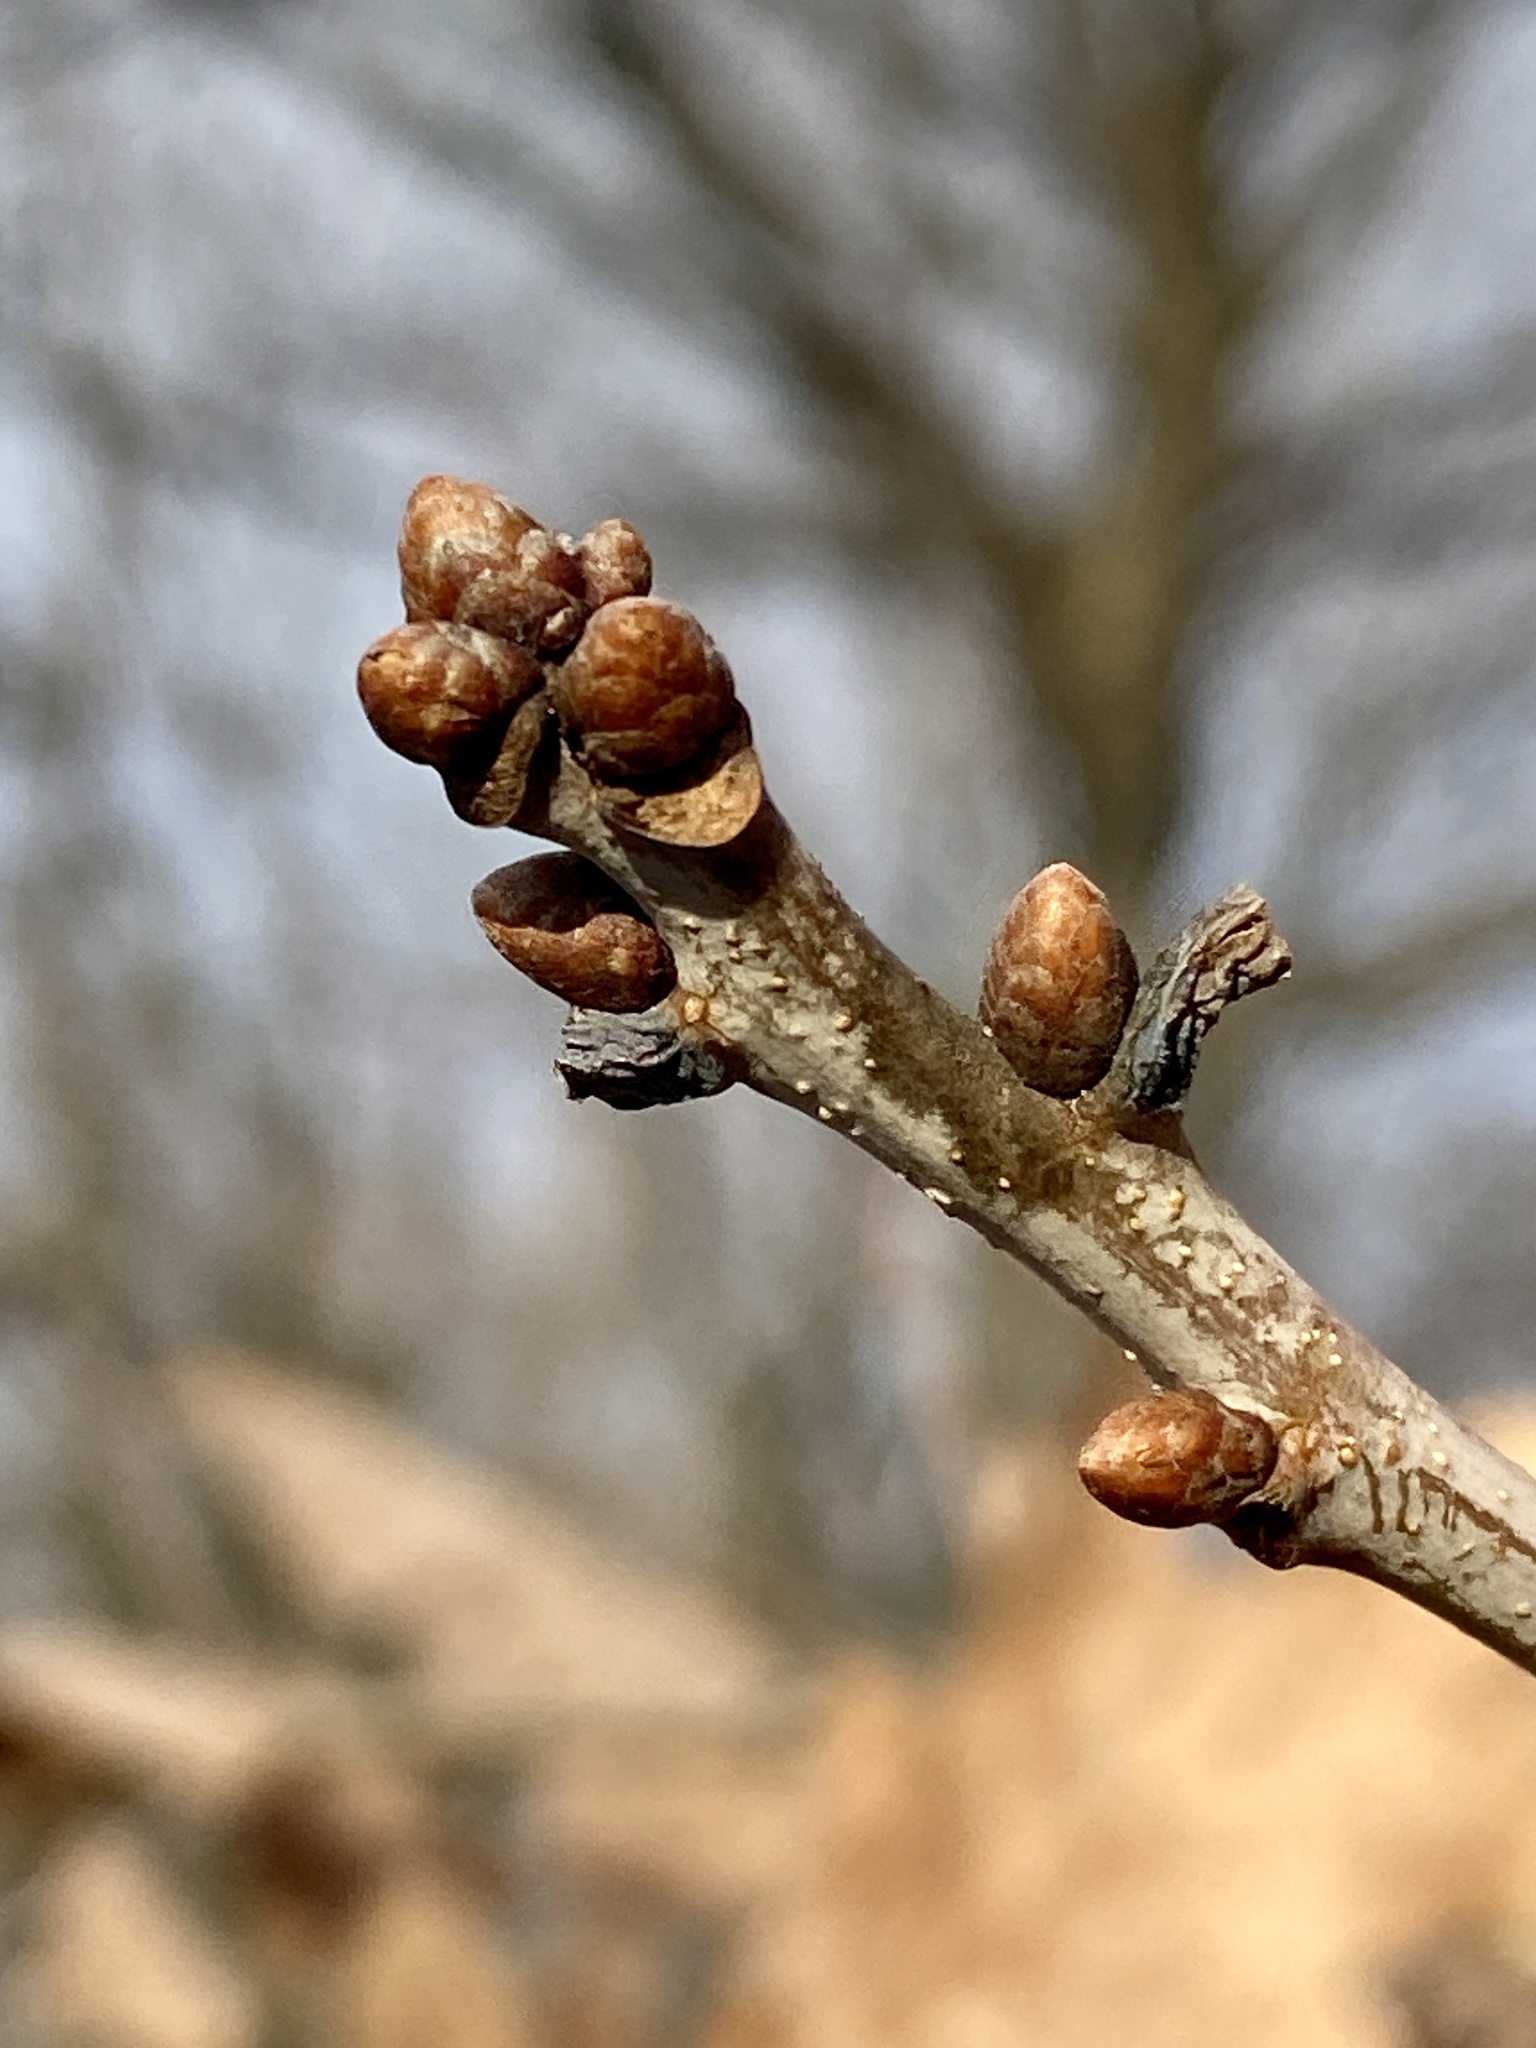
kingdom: Plantae
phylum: Tracheophyta
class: Magnoliopsida
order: Fagales
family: Fagaceae
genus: Quercus
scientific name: Quercus alba
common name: White oak
